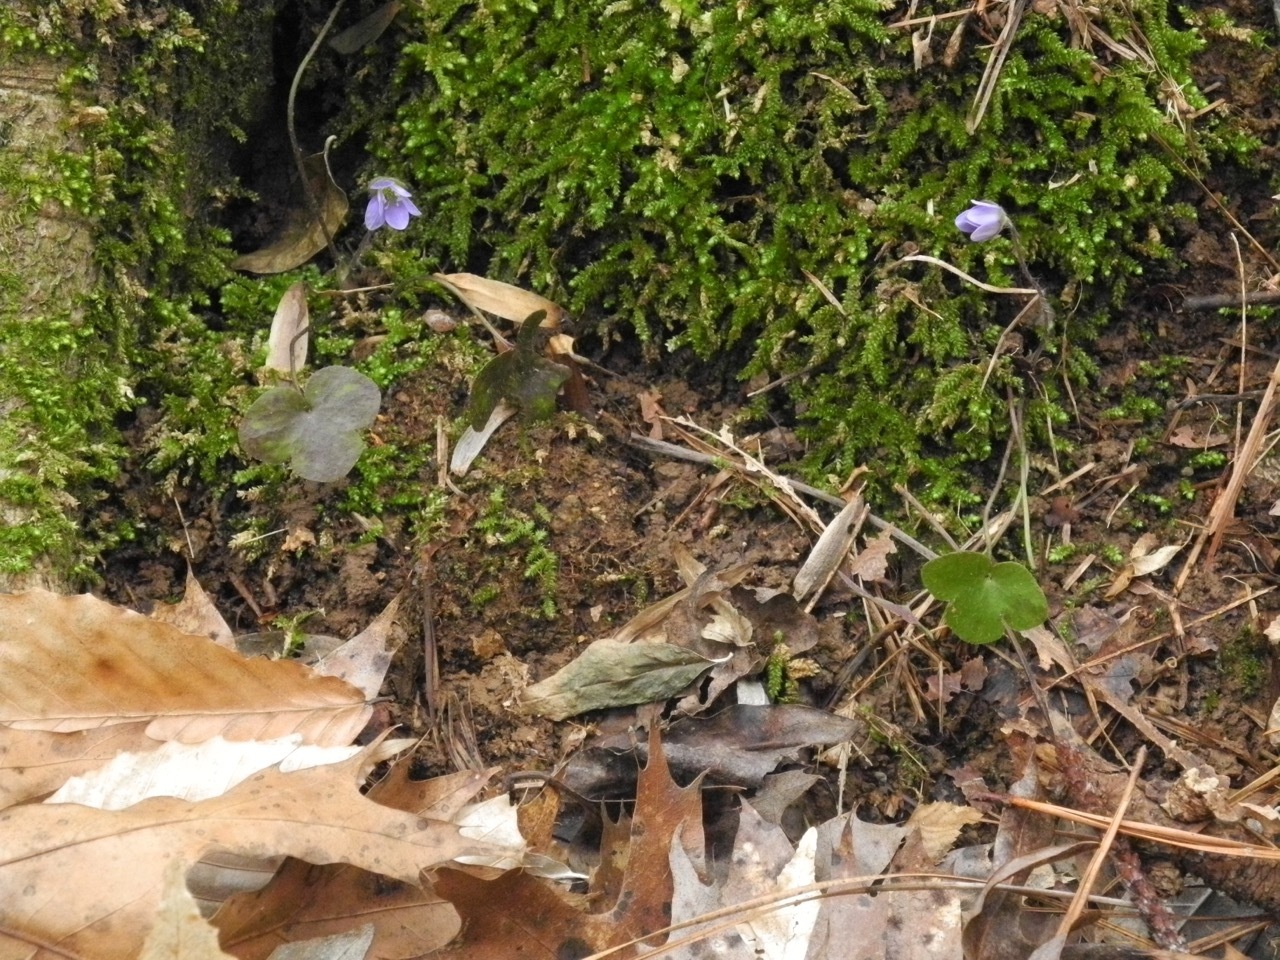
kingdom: Plantae
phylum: Tracheophyta
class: Magnoliopsida
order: Ranunculales
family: Ranunculaceae
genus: Hepatica
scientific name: Hepatica americana
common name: American hepatica
